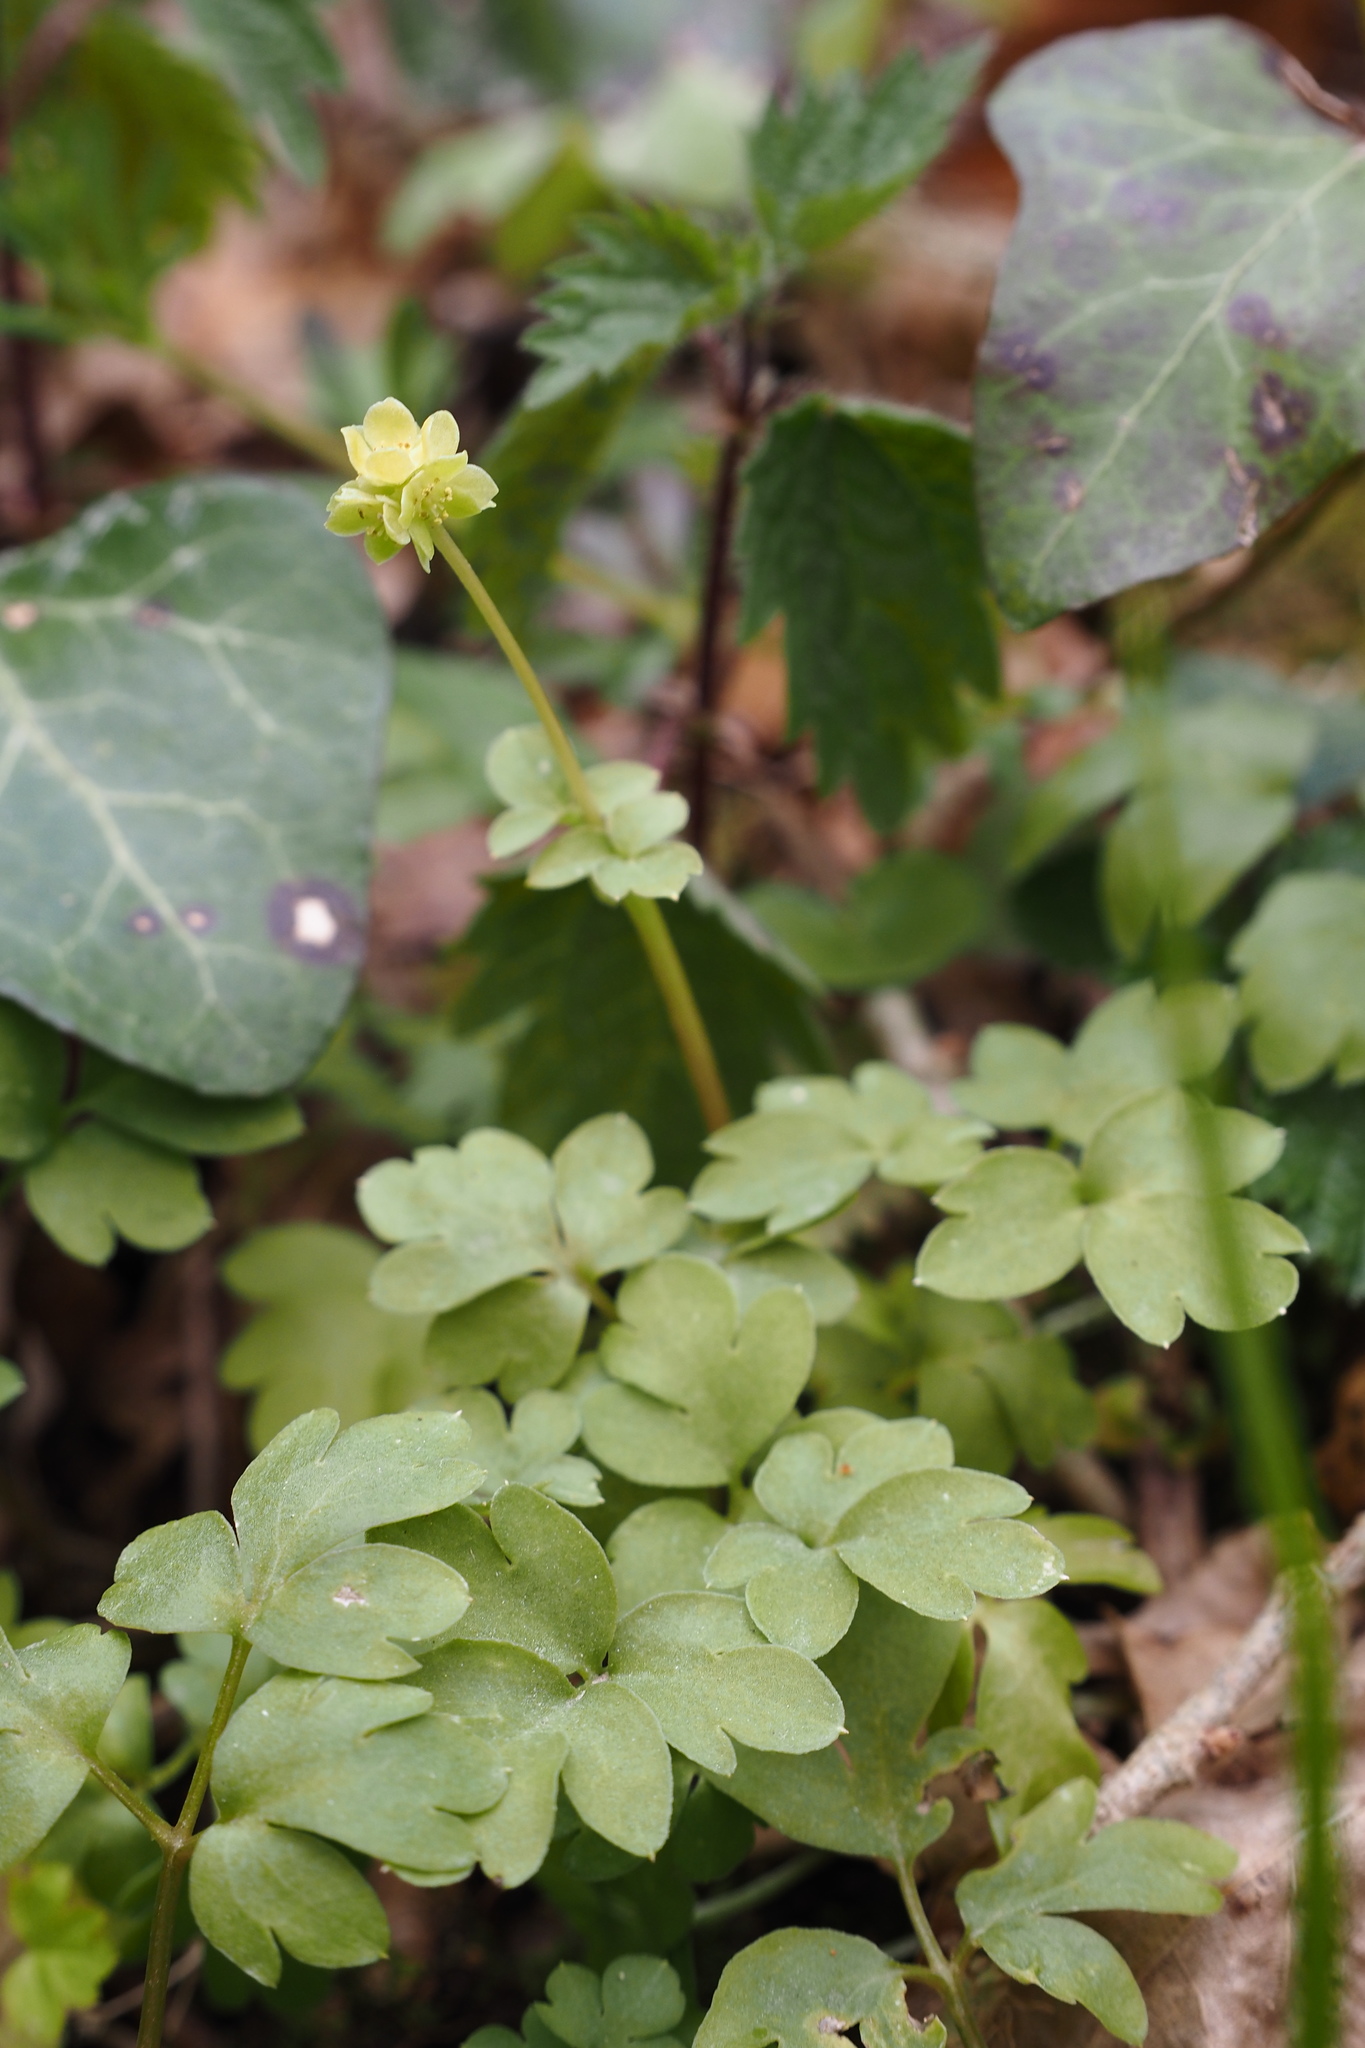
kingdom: Plantae
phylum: Tracheophyta
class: Magnoliopsida
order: Dipsacales
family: Viburnaceae
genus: Adoxa
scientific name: Adoxa moschatellina
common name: Moschatel
